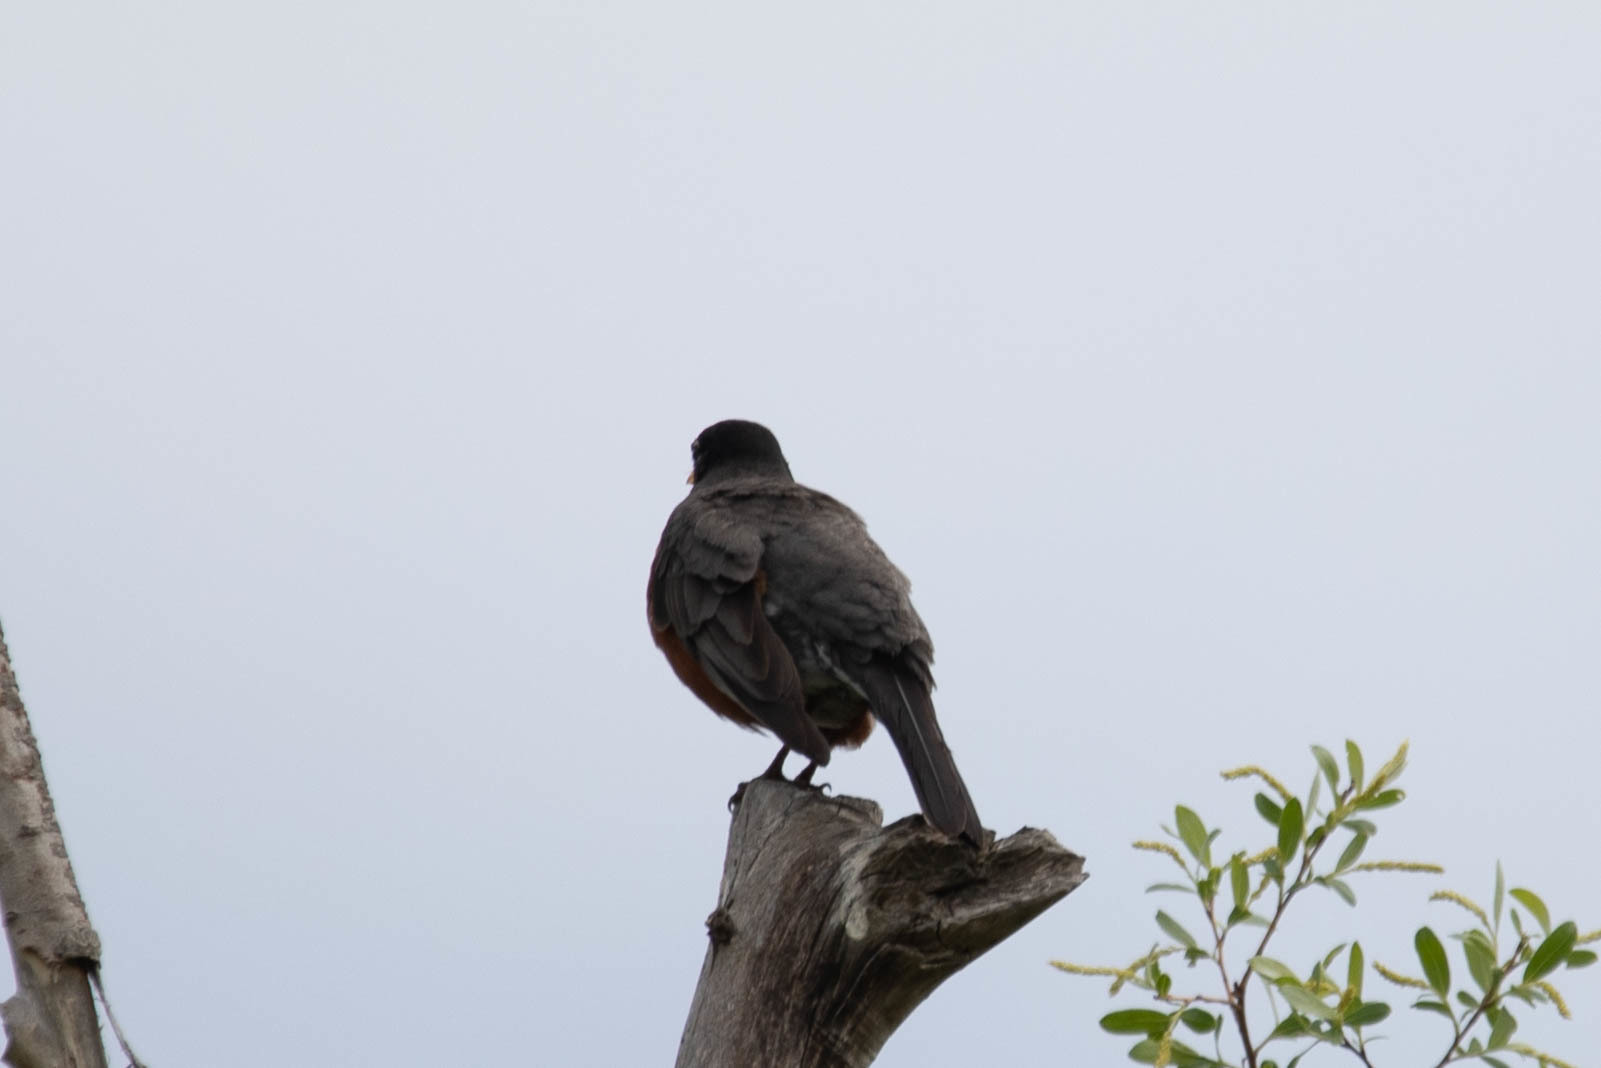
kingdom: Animalia
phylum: Chordata
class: Aves
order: Passeriformes
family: Turdidae
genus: Turdus
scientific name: Turdus migratorius
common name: American robin
